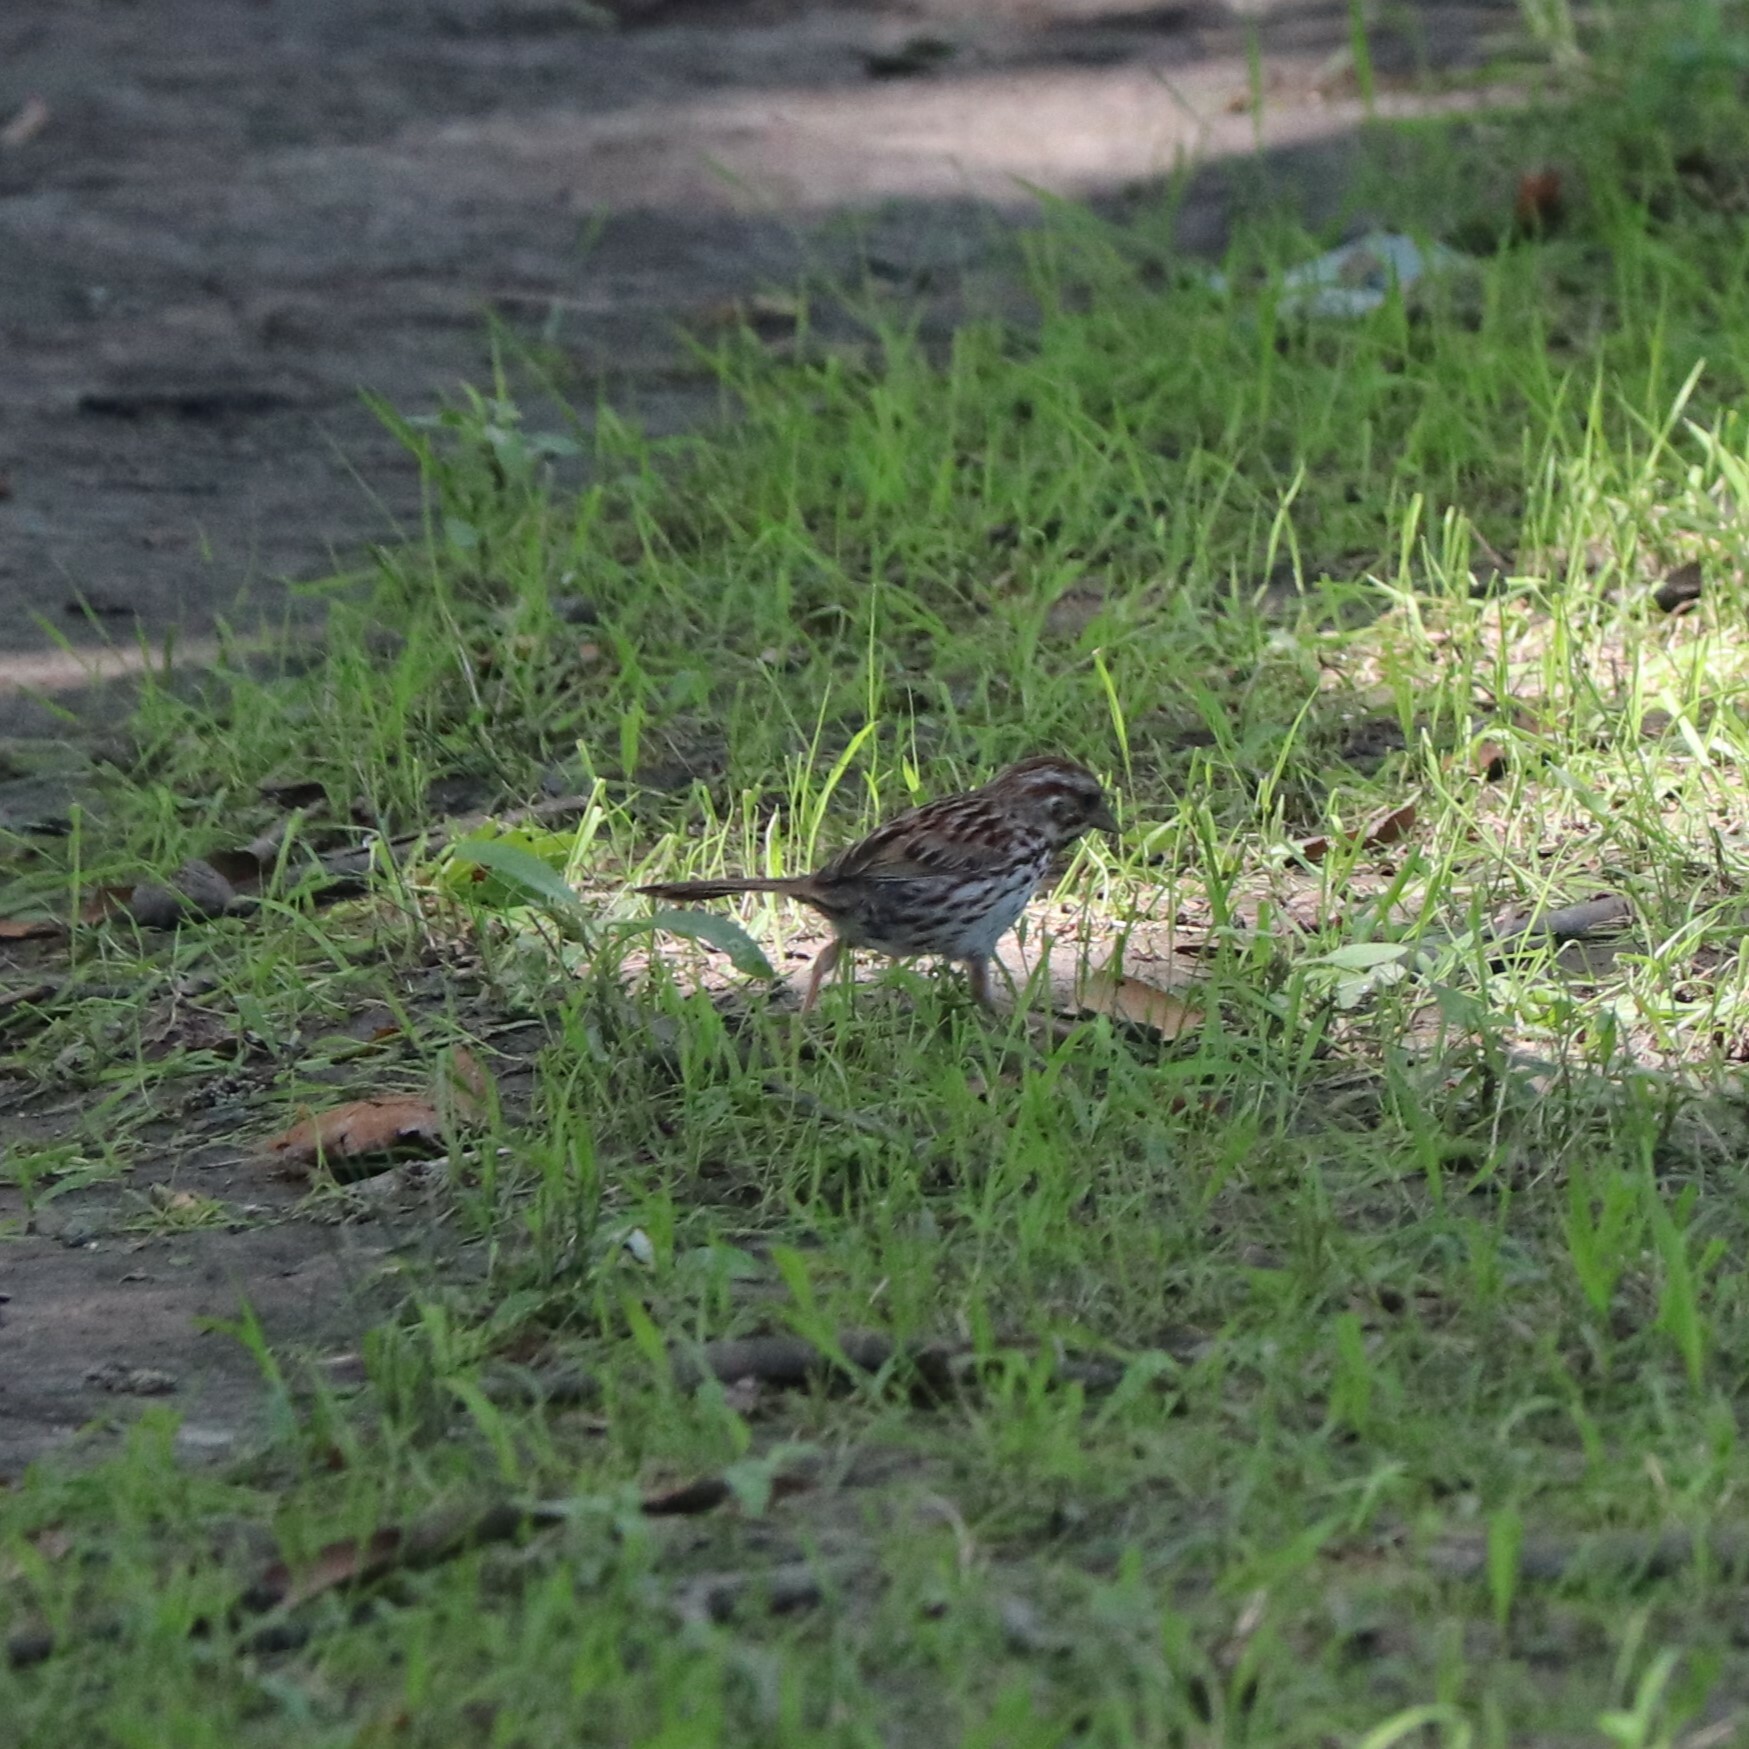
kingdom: Animalia
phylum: Chordata
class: Aves
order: Passeriformes
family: Passerellidae
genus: Melospiza
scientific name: Melospiza melodia
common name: Song sparrow
